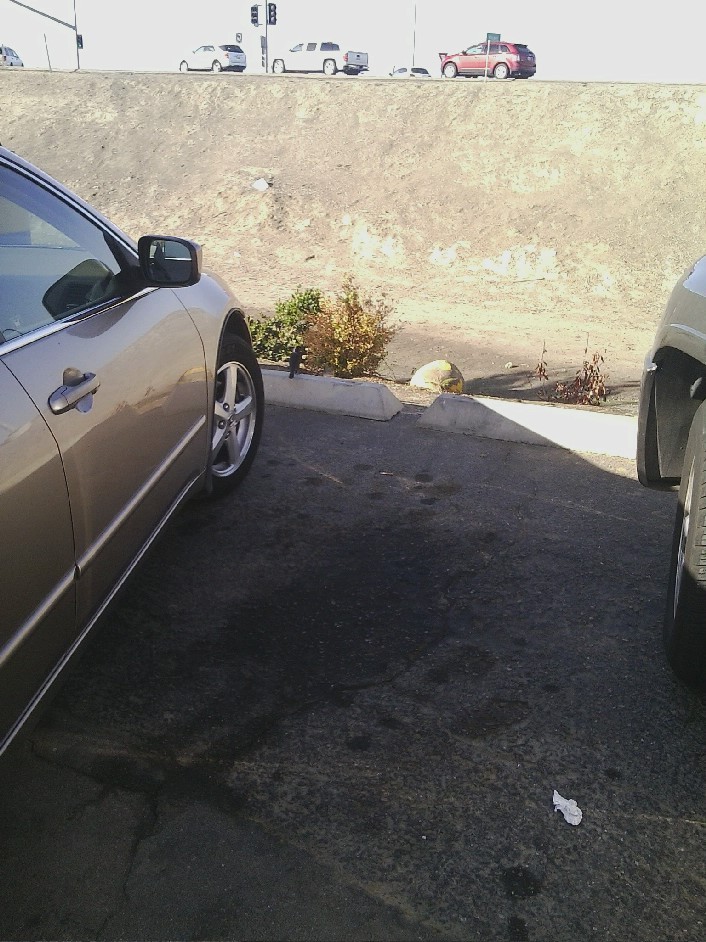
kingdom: Animalia
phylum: Chordata
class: Aves
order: Passeriformes
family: Icteridae
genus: Euphagus
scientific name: Euphagus cyanocephalus
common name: Brewer's blackbird
